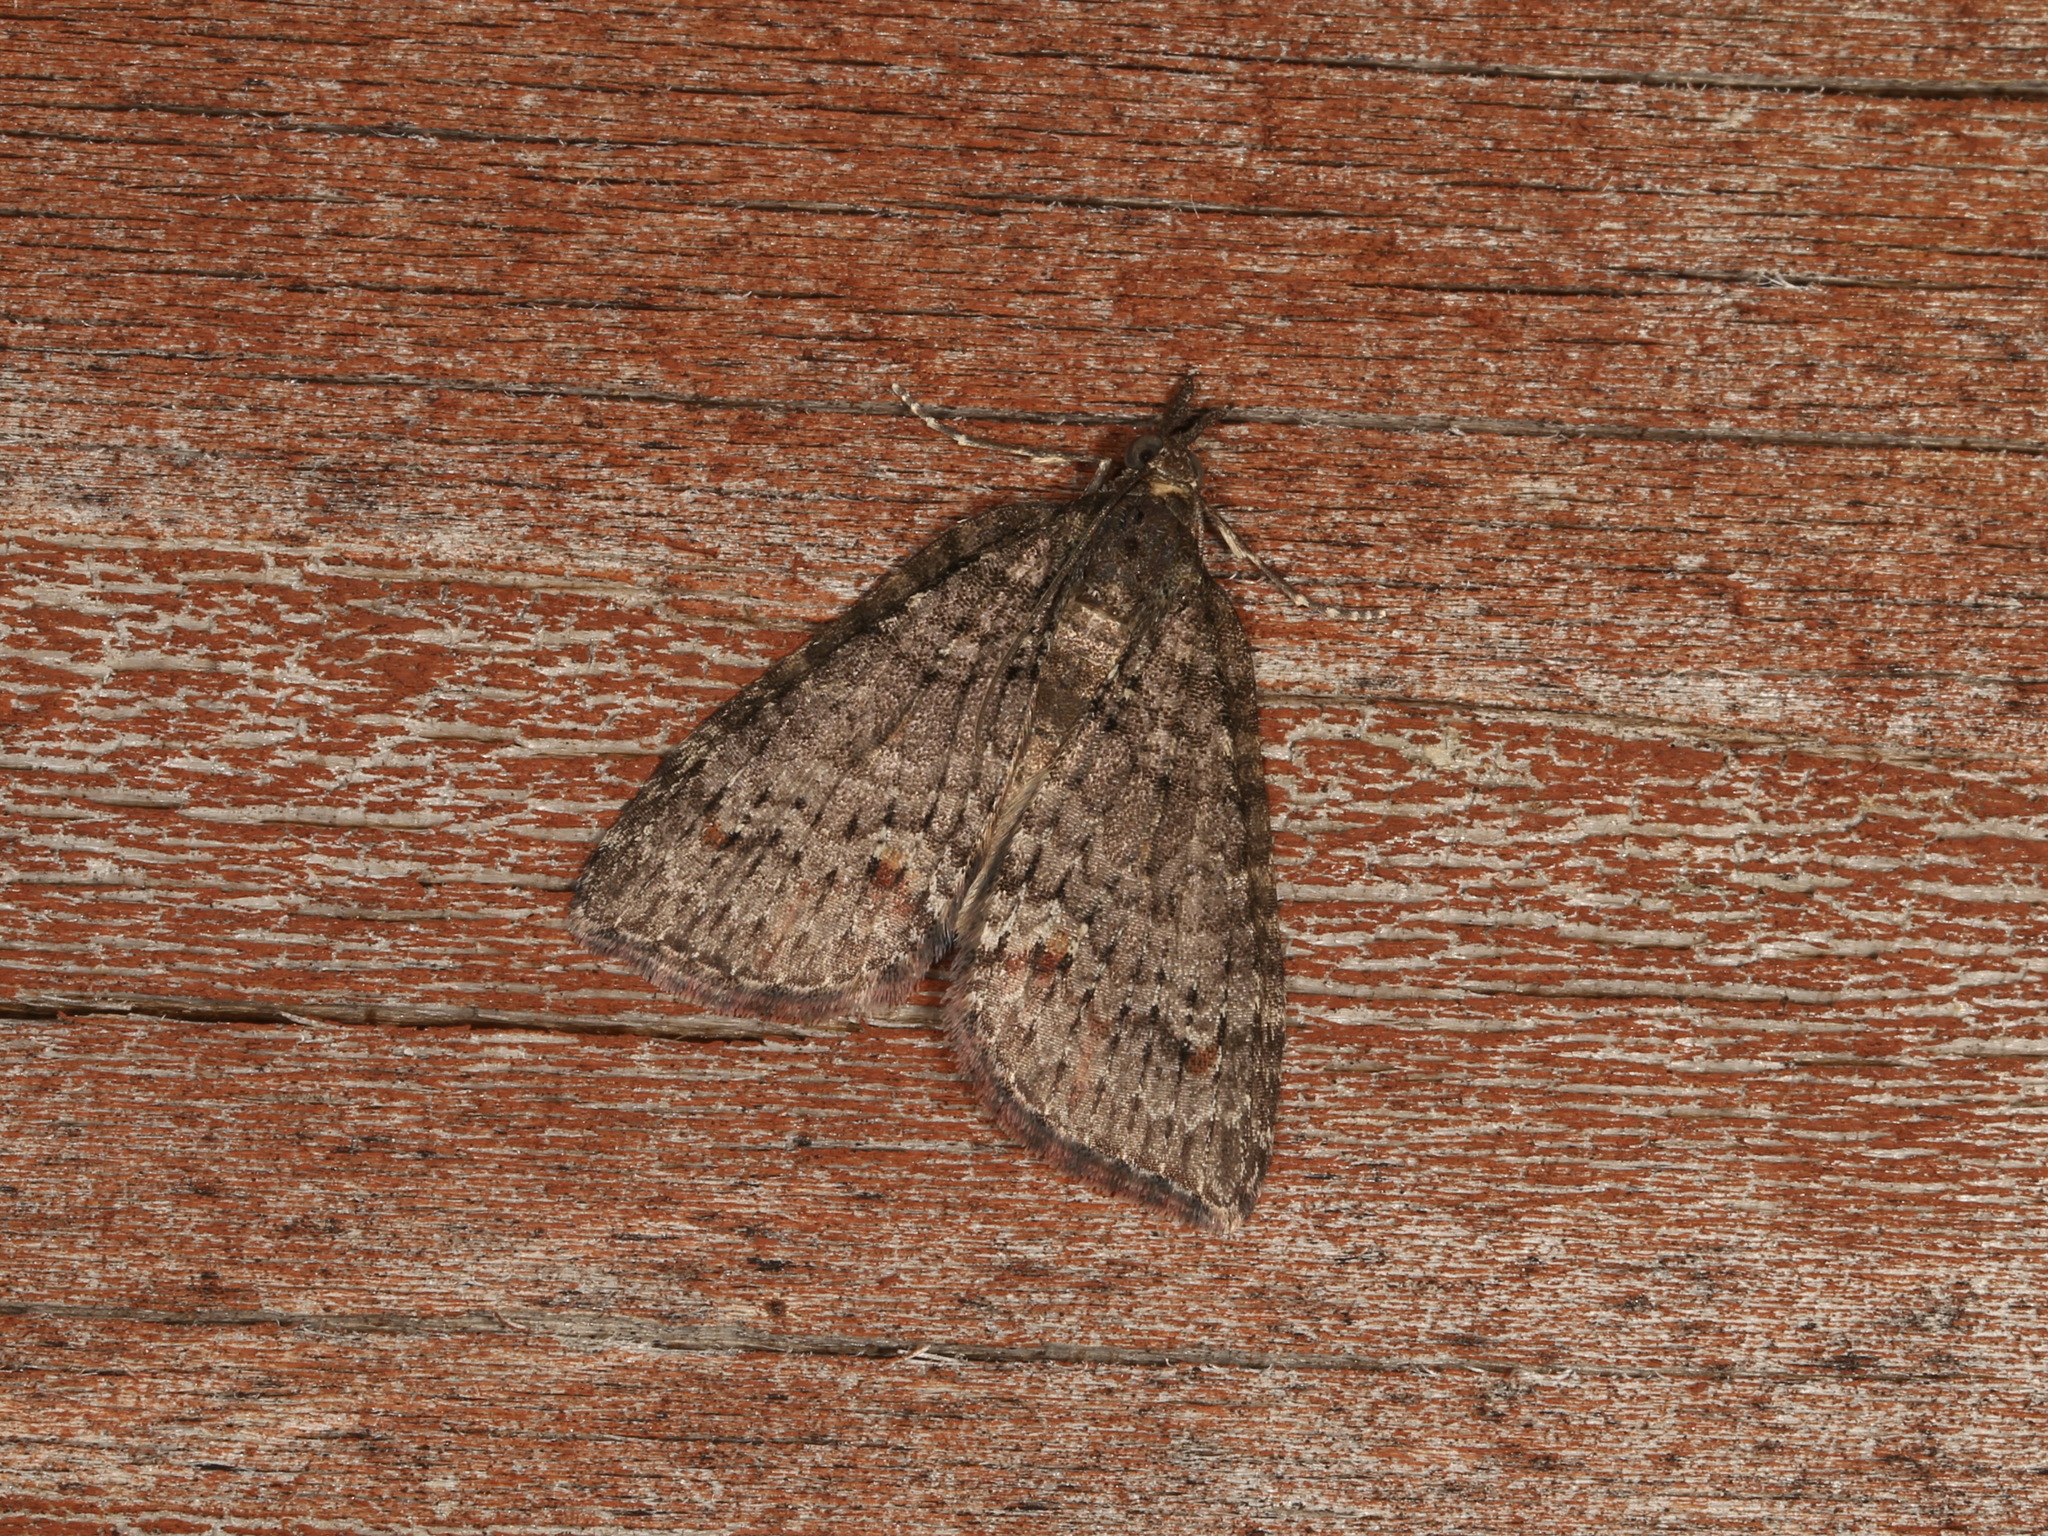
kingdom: Animalia
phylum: Arthropoda
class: Insecta
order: Lepidoptera
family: Geometridae
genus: Microdes
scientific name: Microdes squamulata
